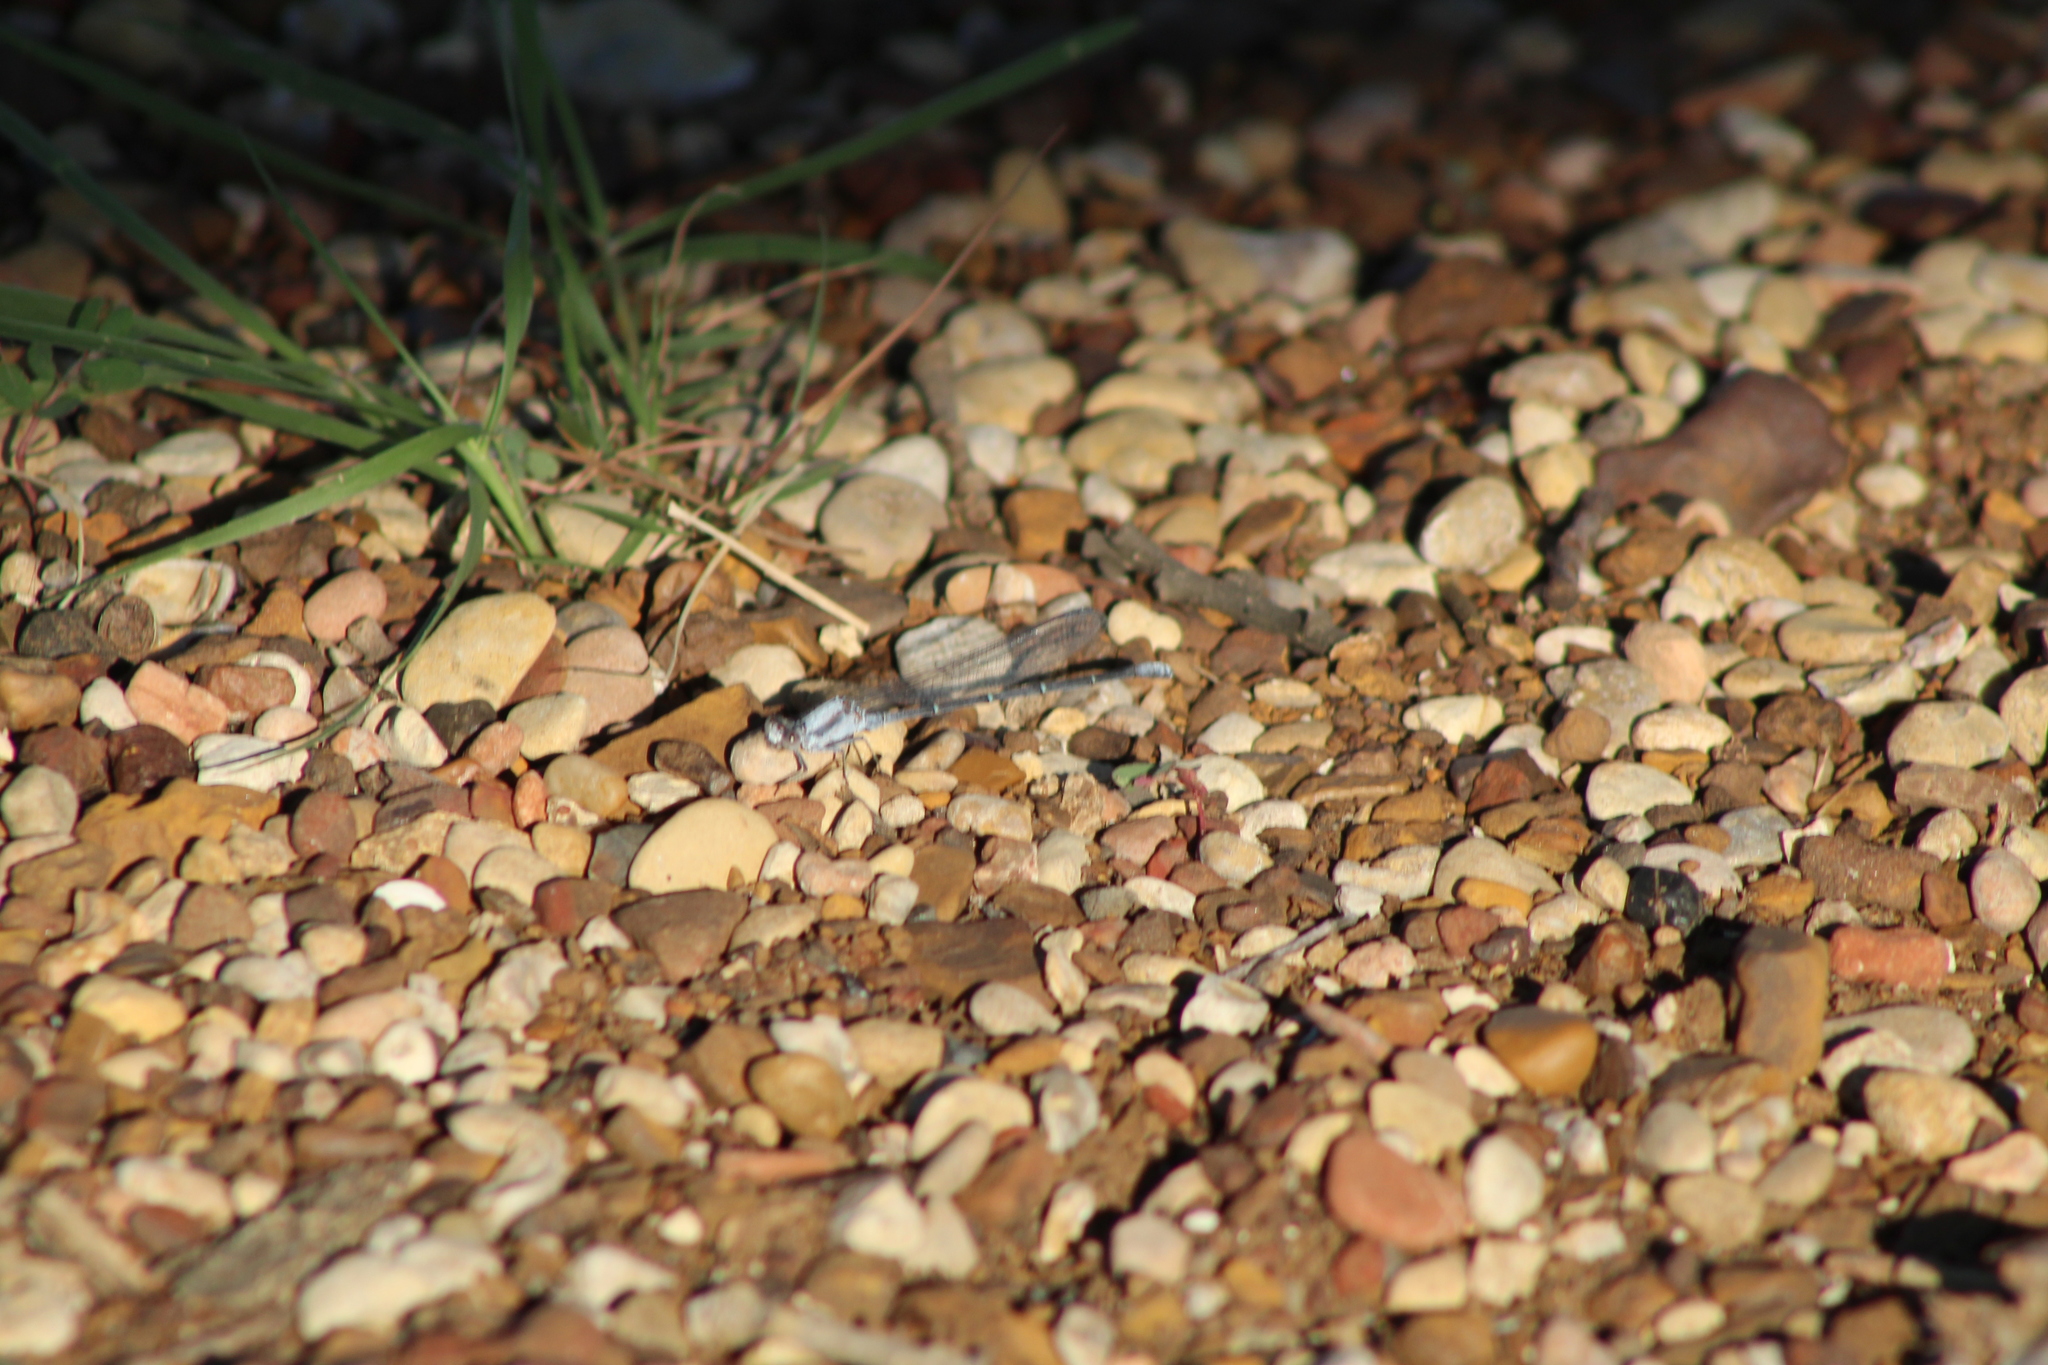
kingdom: Animalia
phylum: Arthropoda
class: Insecta
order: Odonata
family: Coenagrionidae
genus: Argia
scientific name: Argia moesta
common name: Powdered dancer
